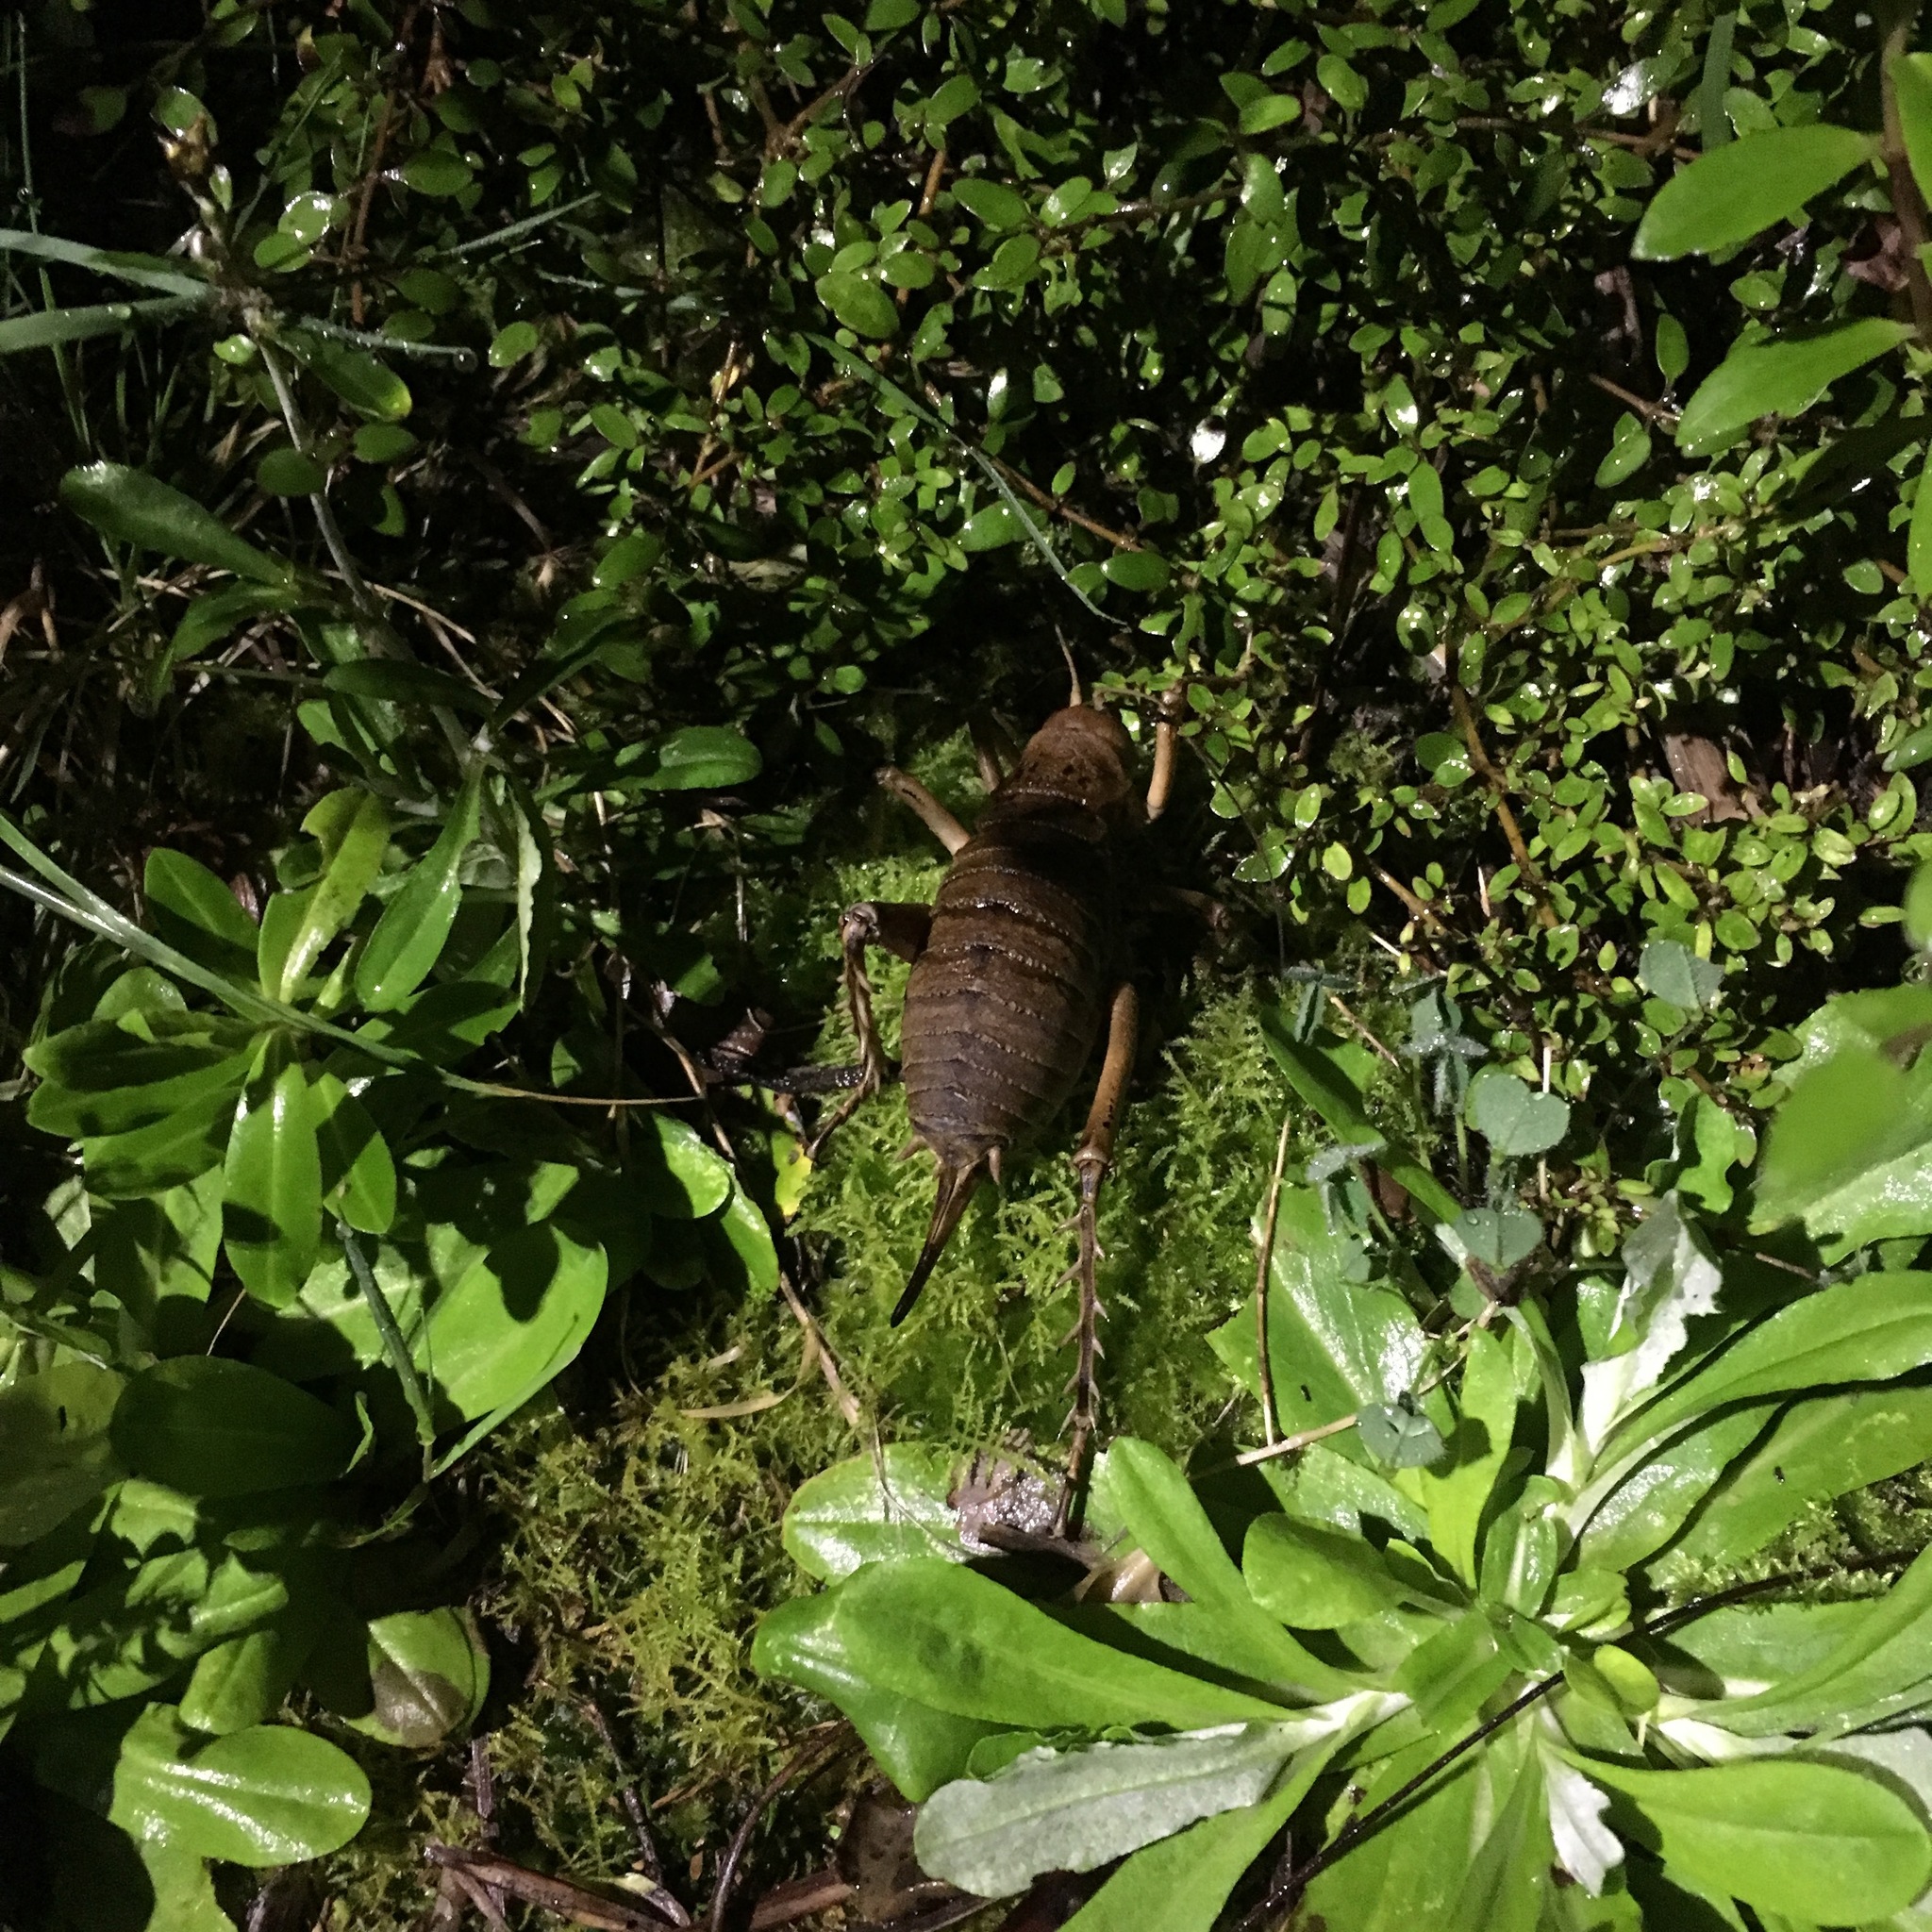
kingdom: Animalia
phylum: Arthropoda
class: Insecta
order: Orthoptera
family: Anostostomatidae
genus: Deinacrida
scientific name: Deinacrida rugosa
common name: Stephens island weta
